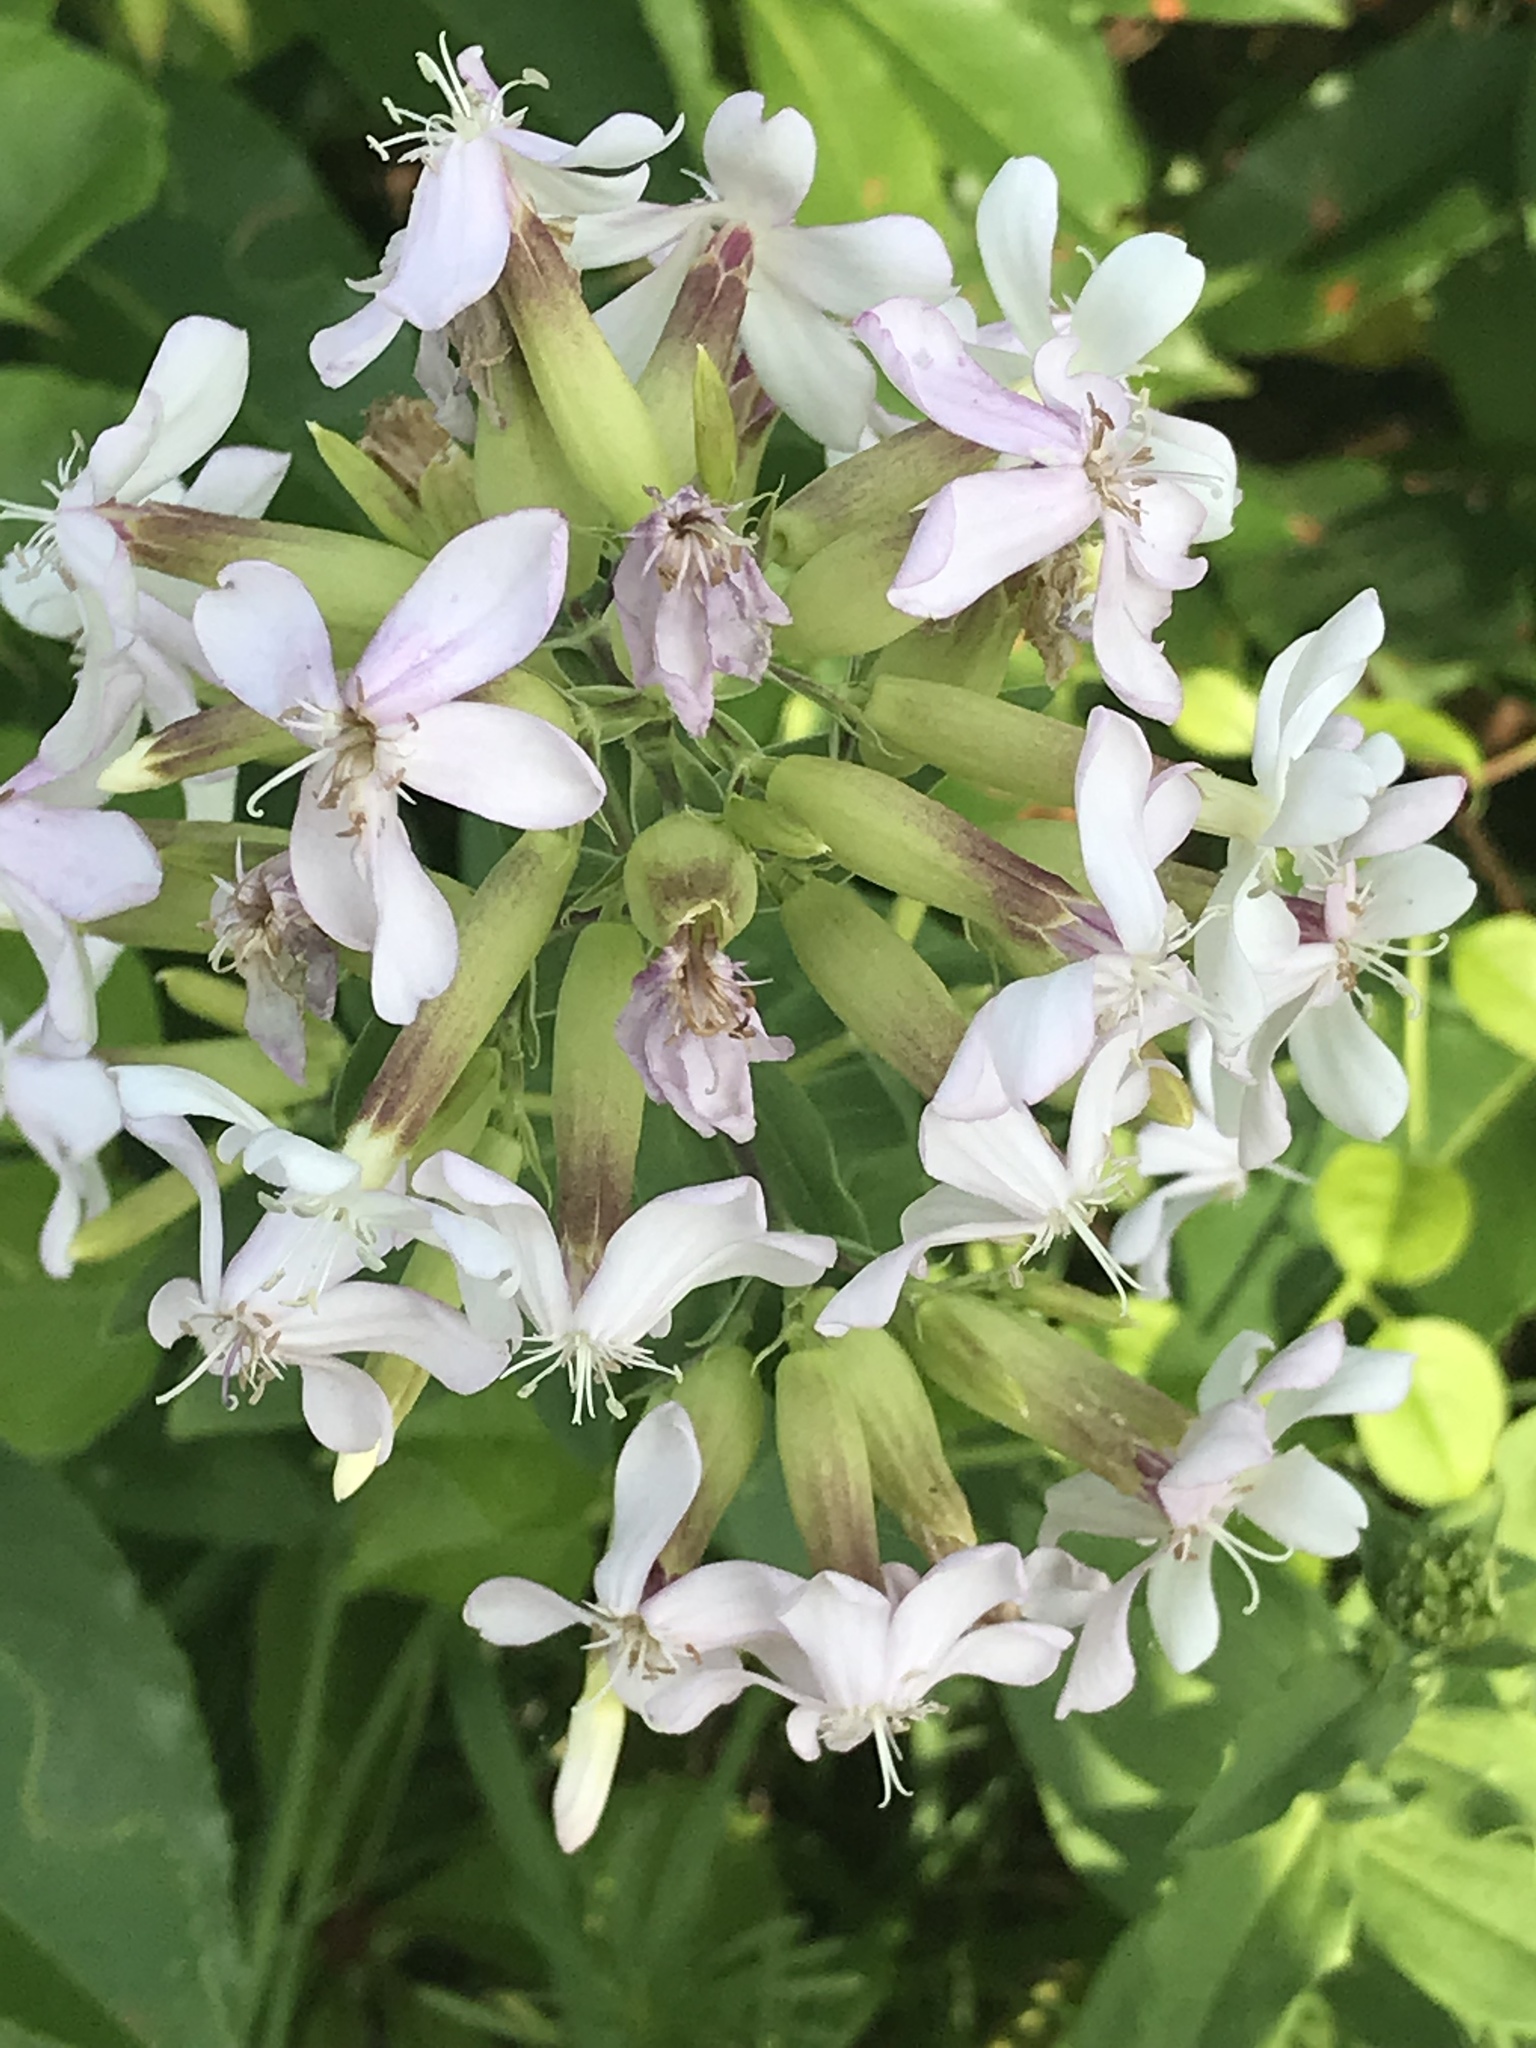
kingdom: Plantae
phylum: Tracheophyta
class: Magnoliopsida
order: Caryophyllales
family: Caryophyllaceae
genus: Saponaria
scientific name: Saponaria officinalis
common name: Soapwort
